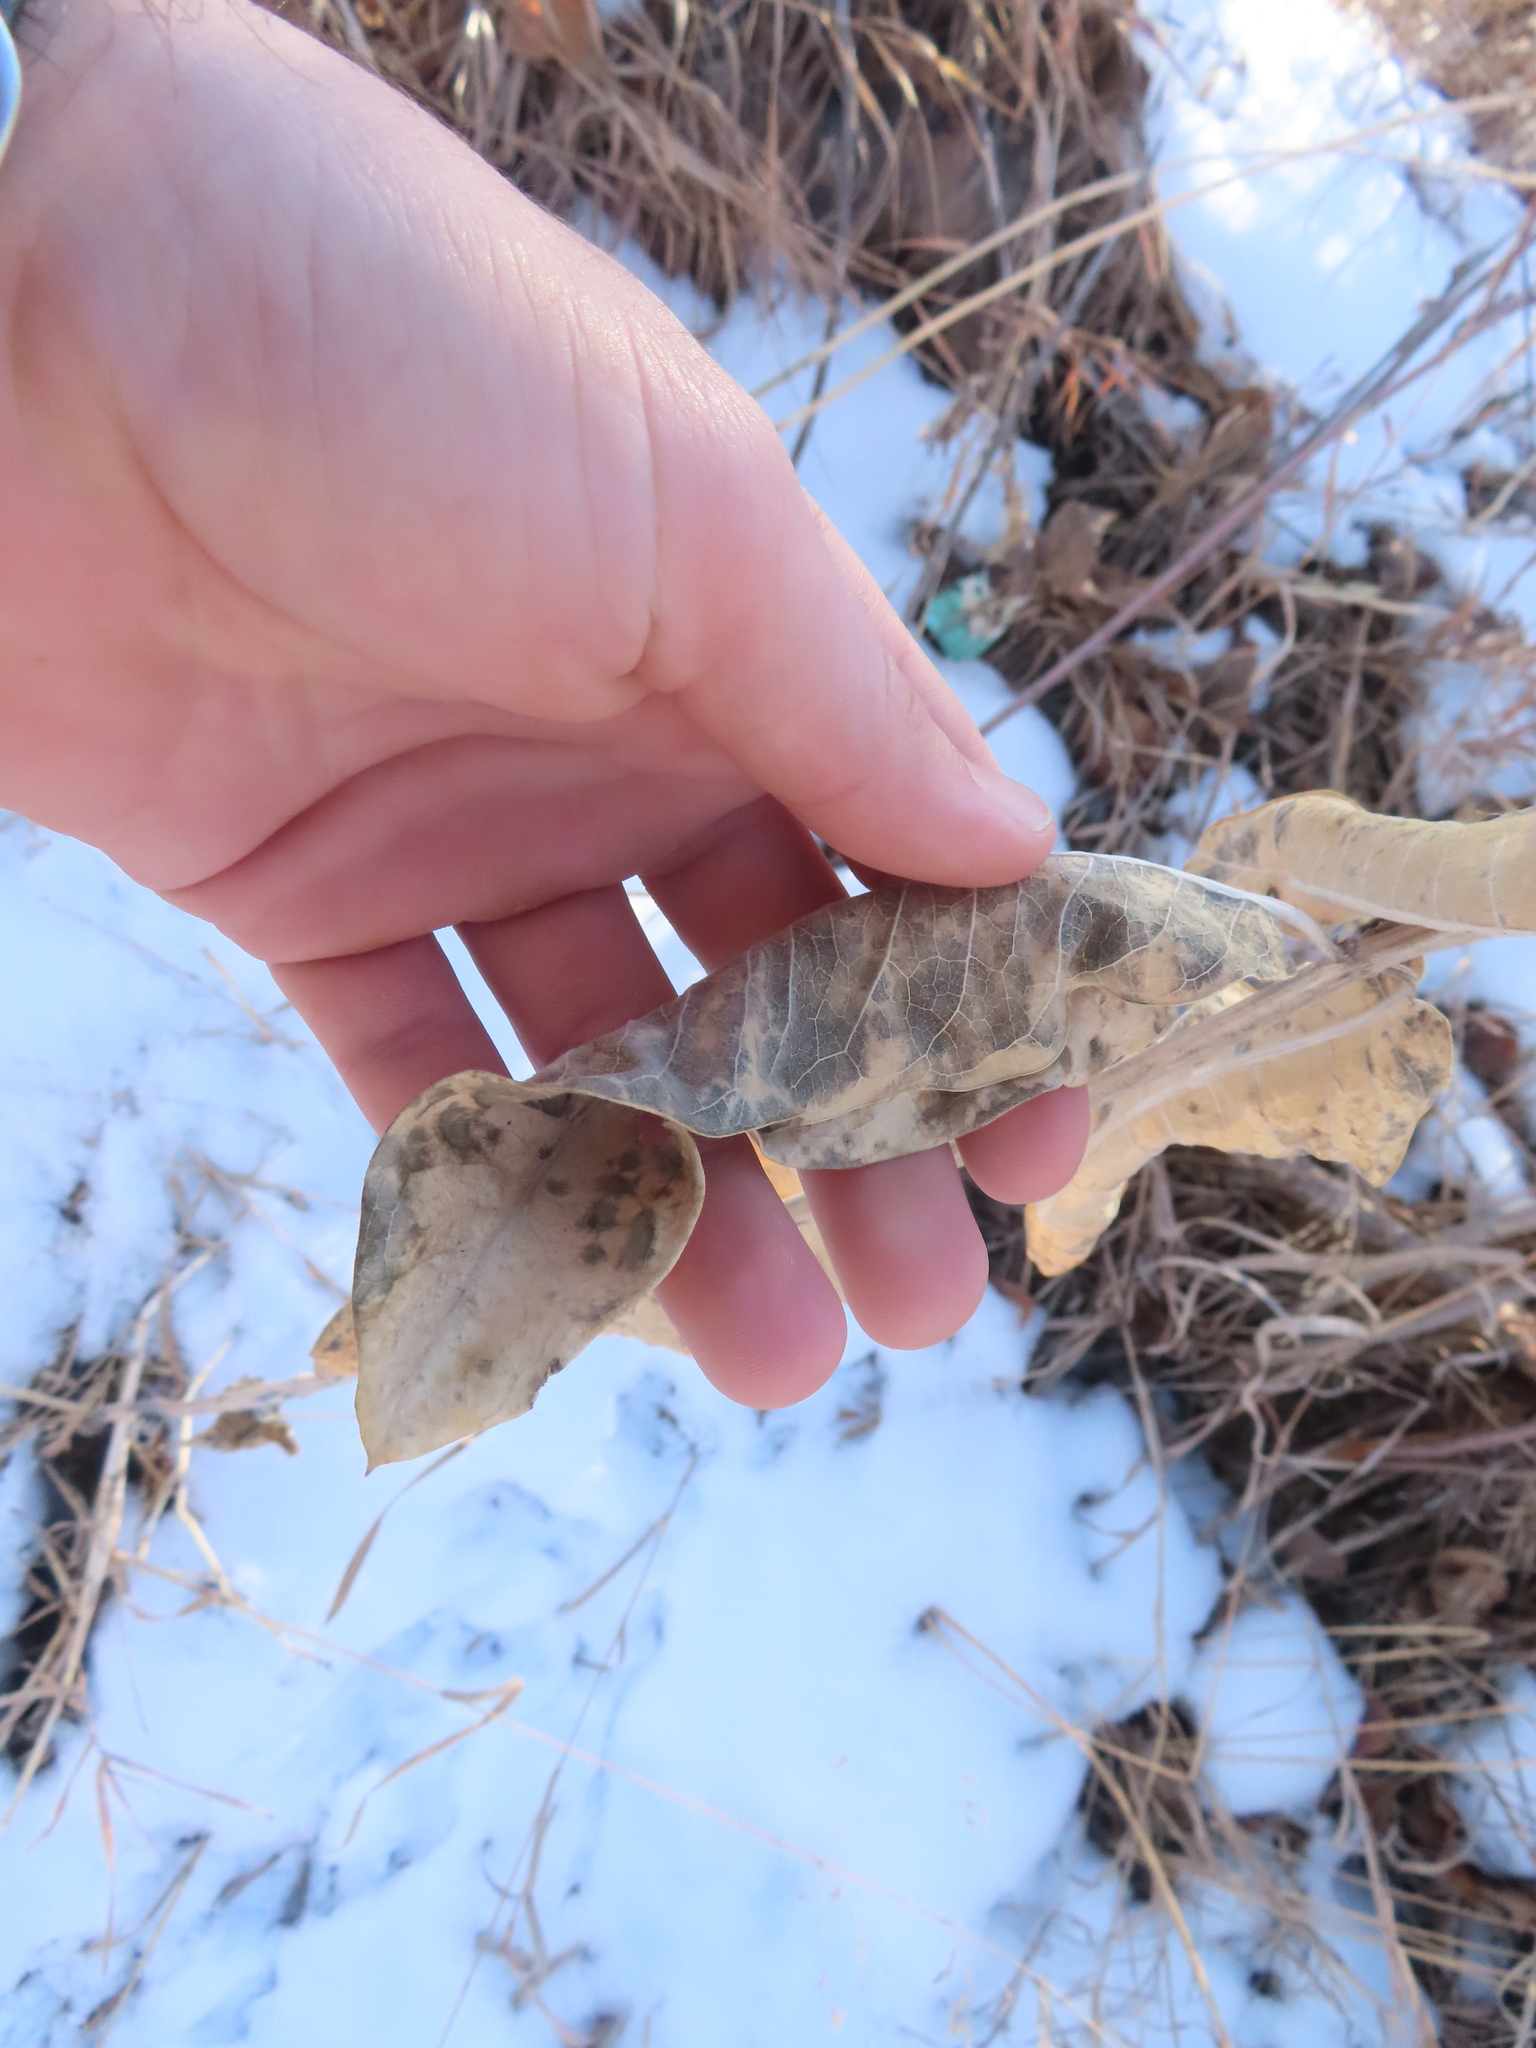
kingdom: Plantae
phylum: Tracheophyta
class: Magnoliopsida
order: Gentianales
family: Apocynaceae
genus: Asclepias
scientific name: Asclepias speciosa
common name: Showy milkweed
